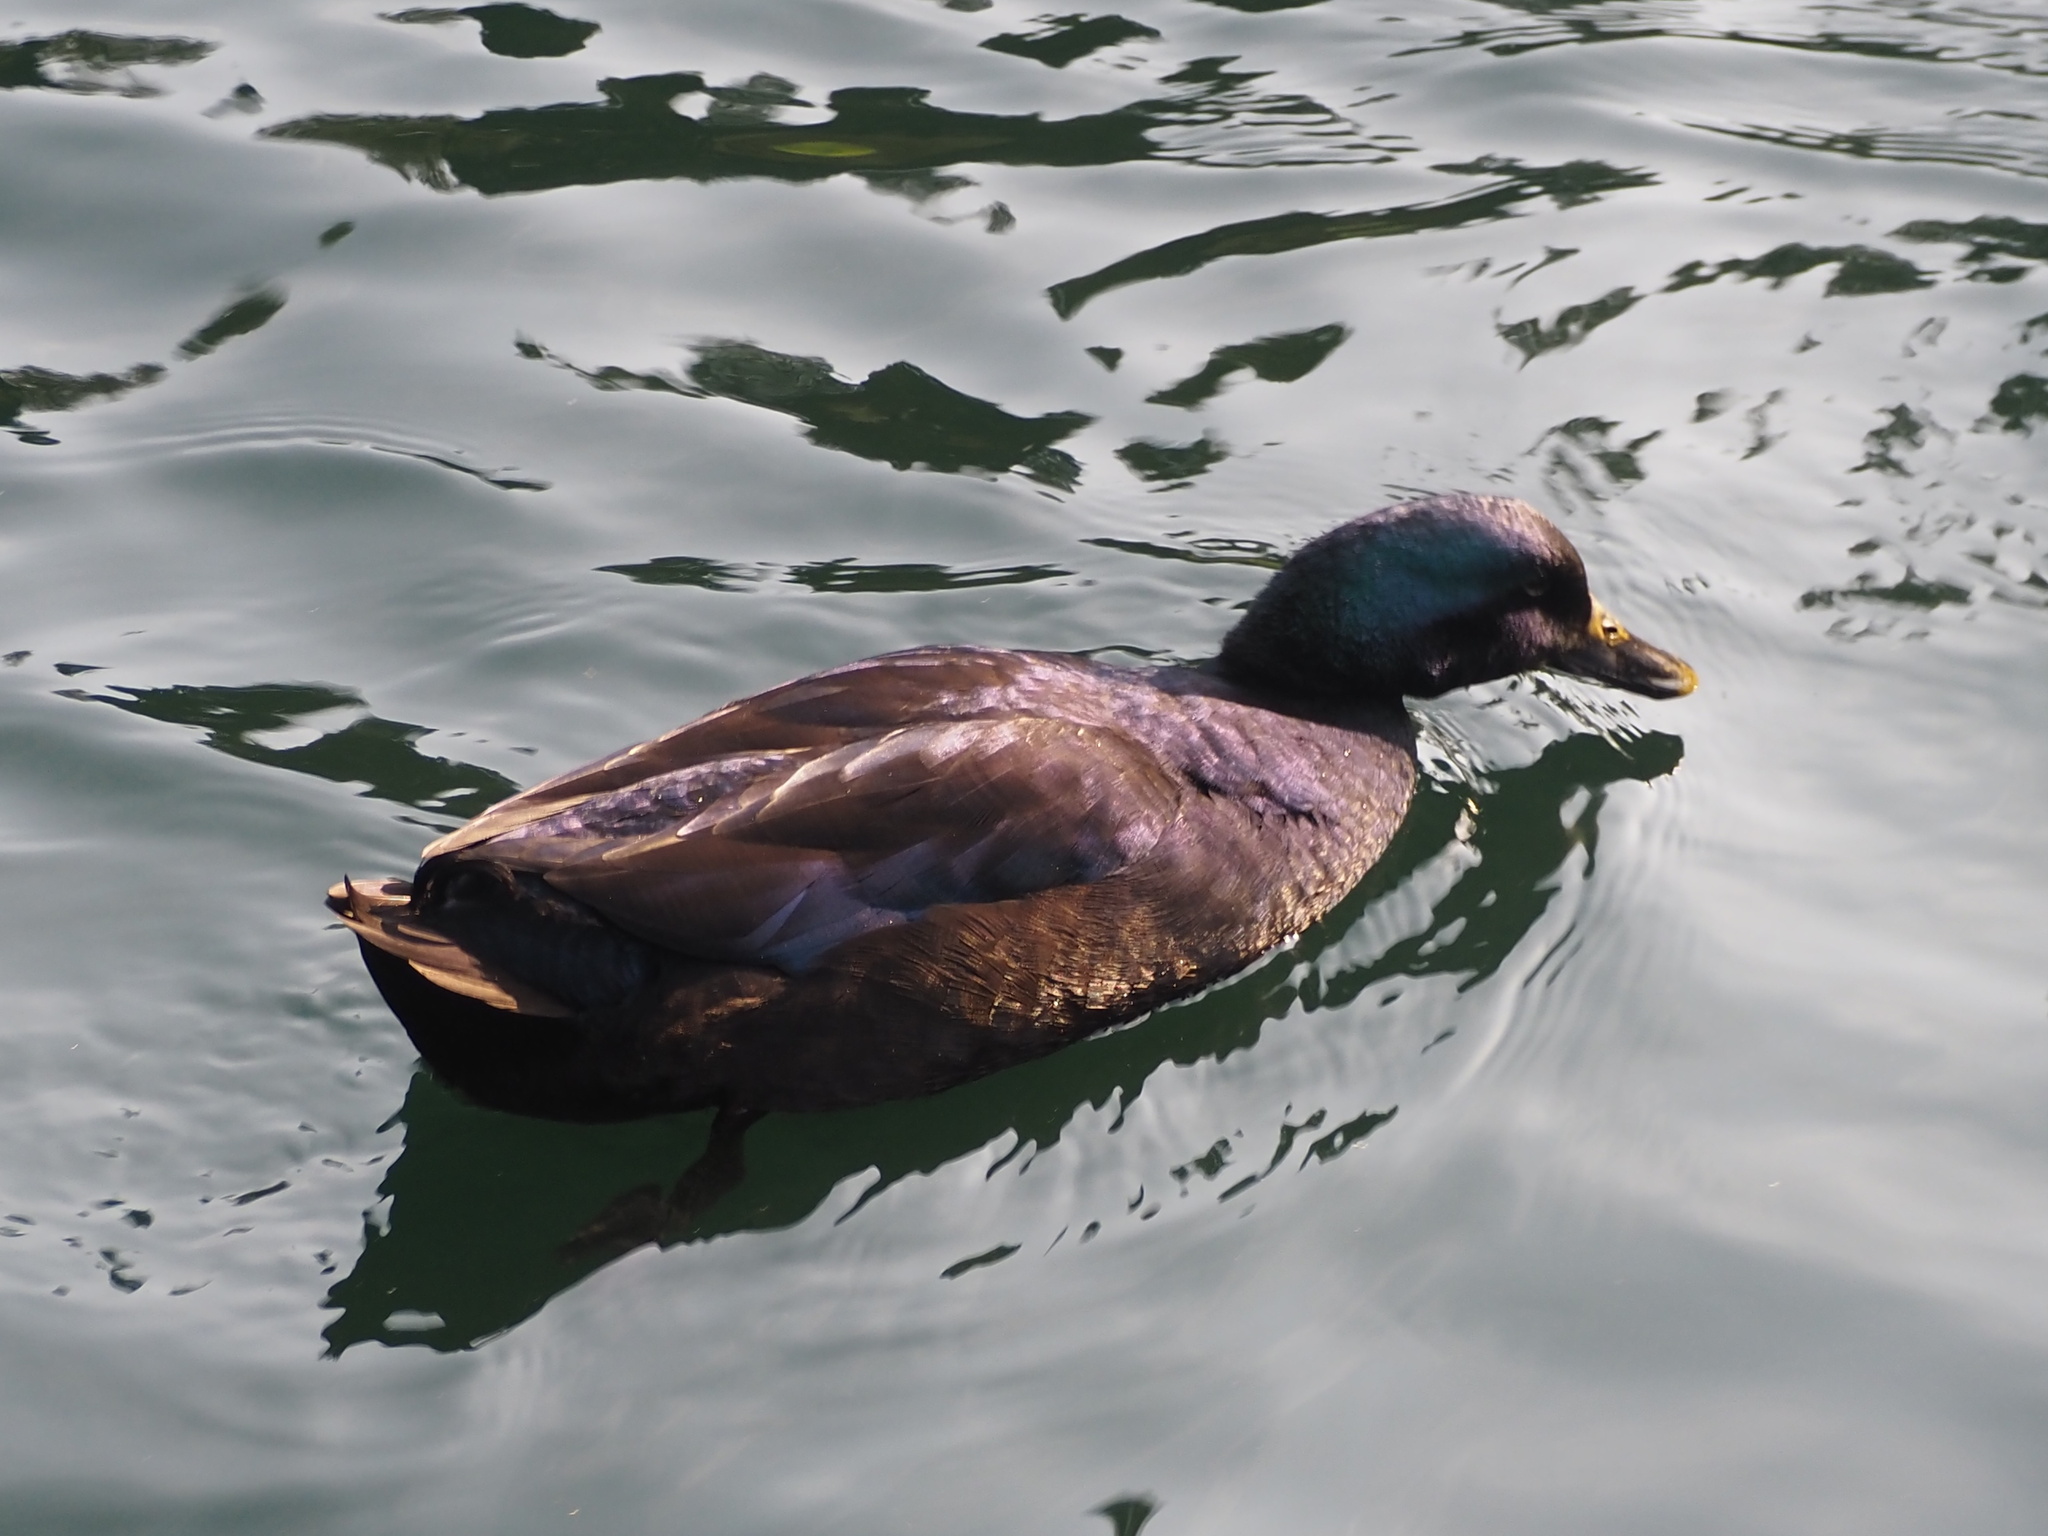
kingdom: Animalia
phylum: Chordata
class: Aves
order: Anseriformes
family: Anatidae
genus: Anas
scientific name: Anas platyrhynchos
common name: Mallard
